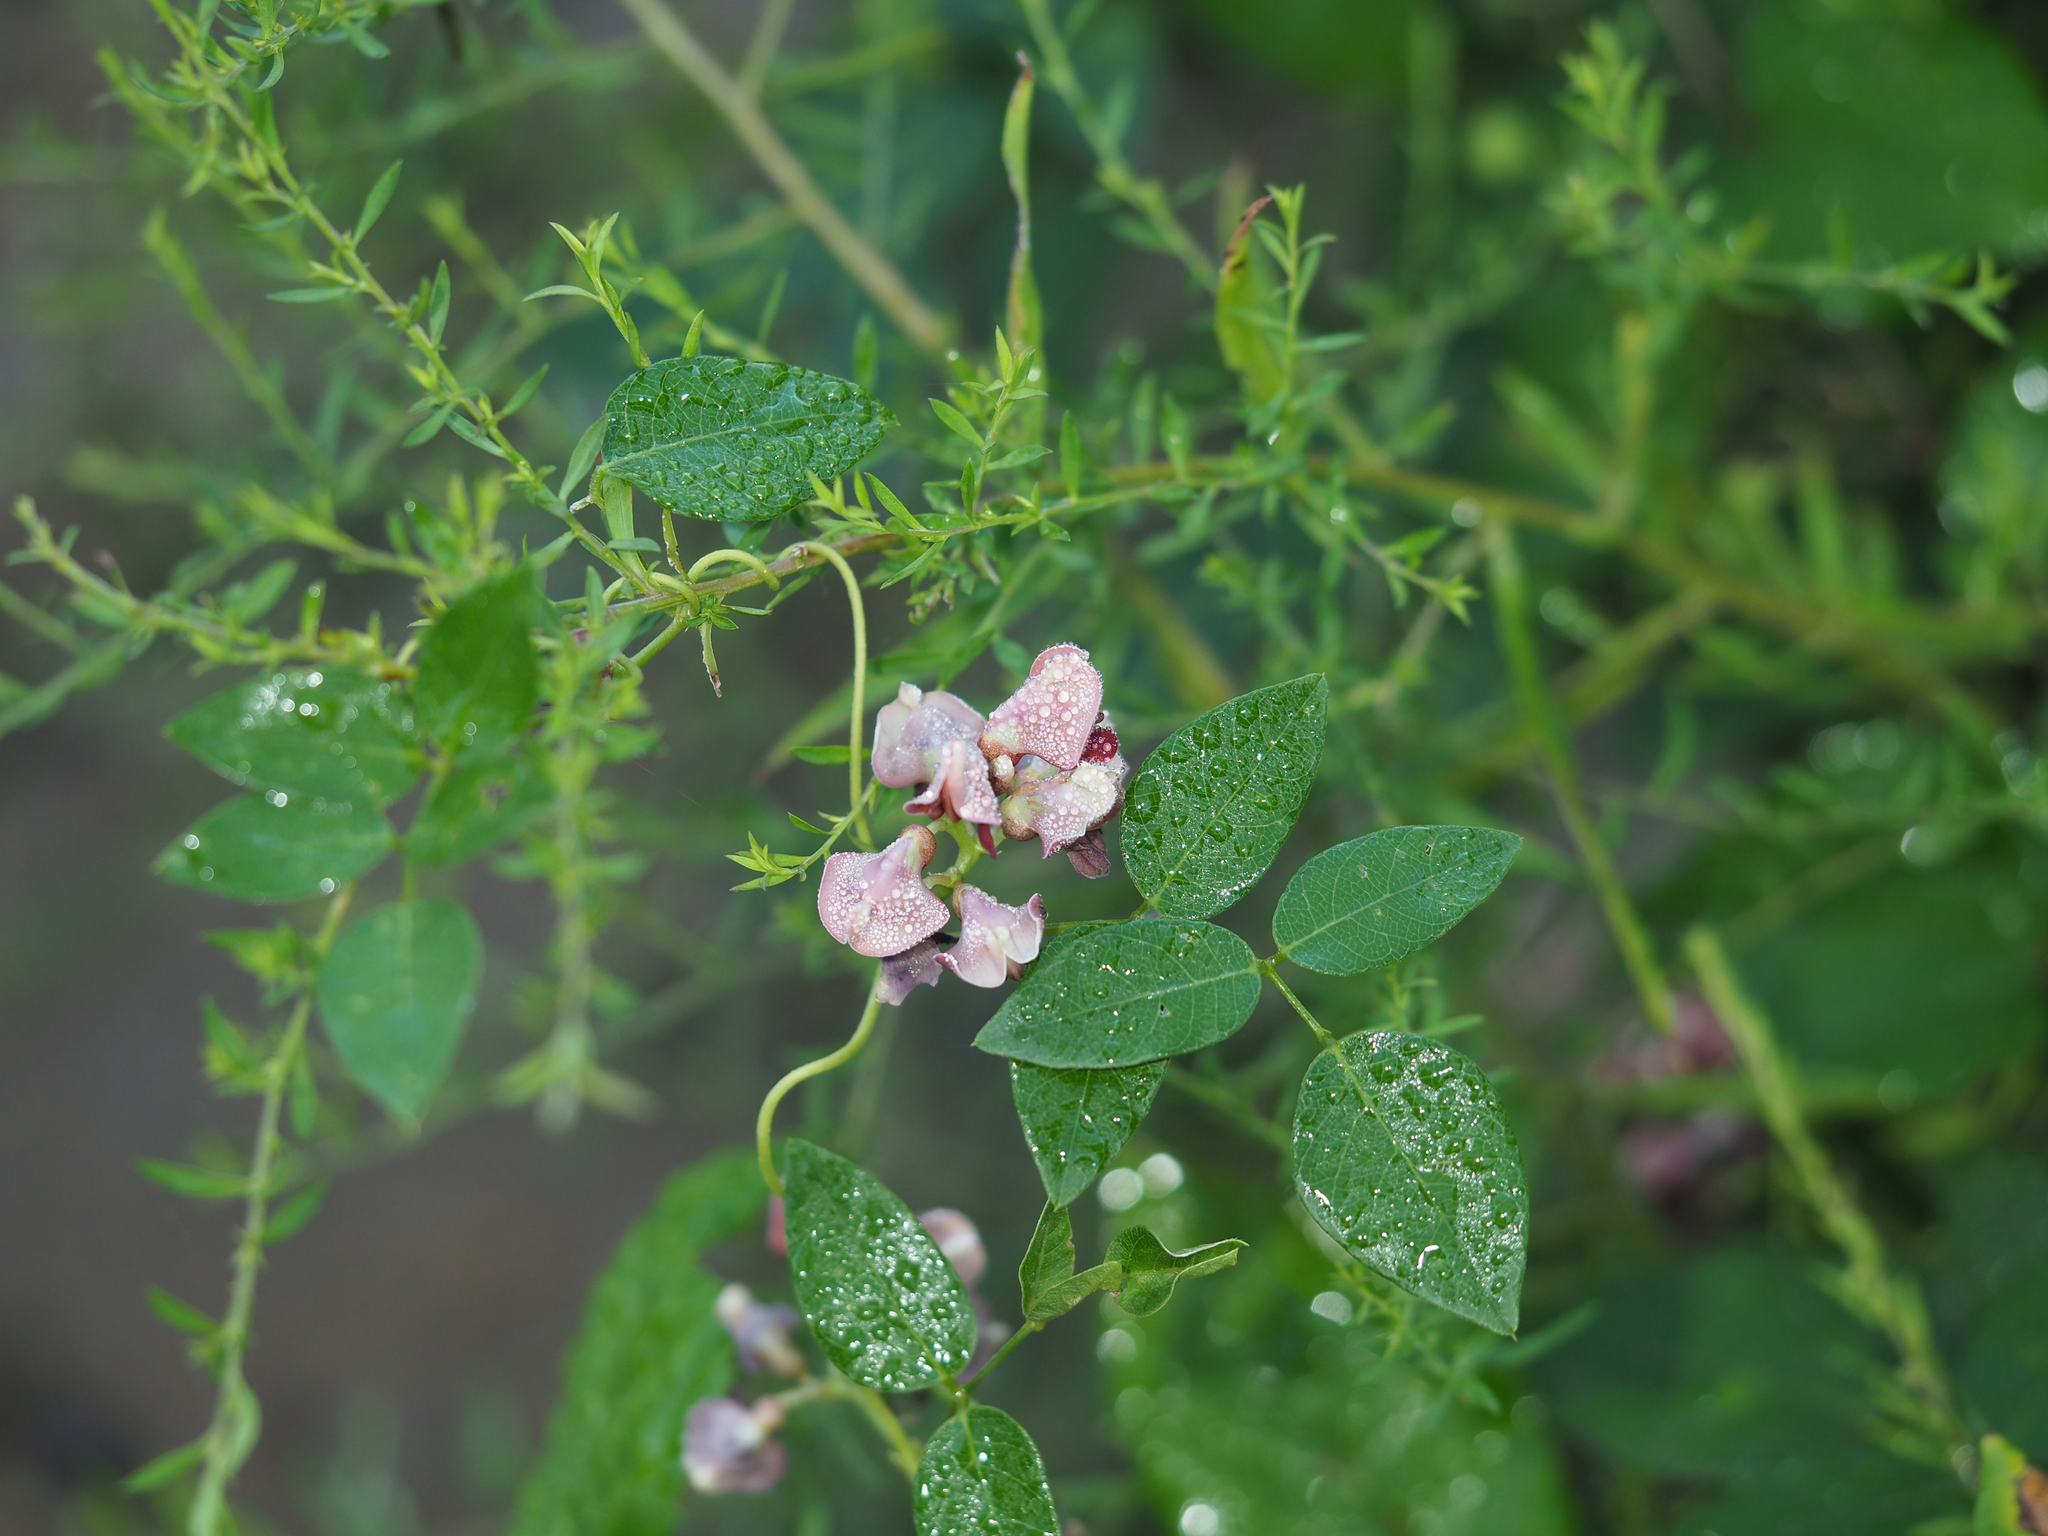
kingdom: Plantae
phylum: Tracheophyta
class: Magnoliopsida
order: Fabales
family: Fabaceae
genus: Apios
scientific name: Apios americana
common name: American potato-bean
